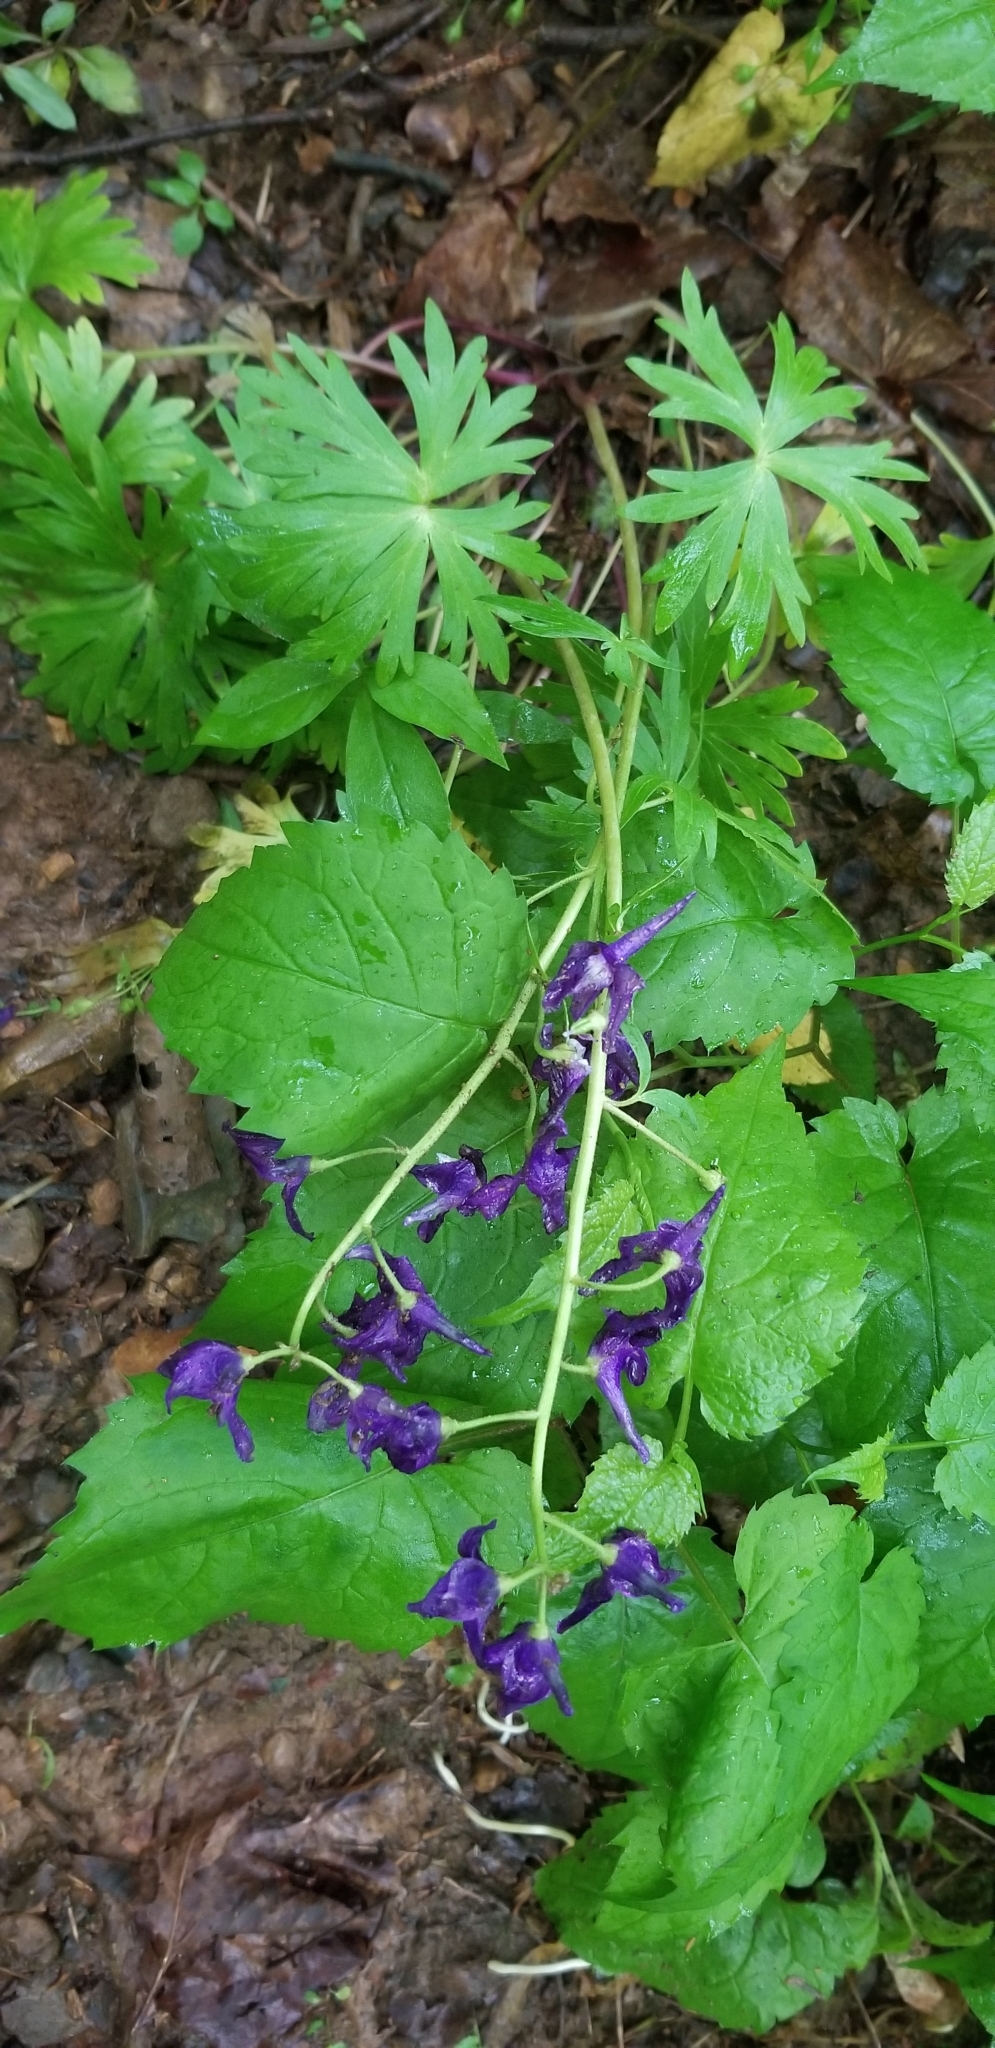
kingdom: Plantae
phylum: Tracheophyta
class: Magnoliopsida
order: Ranunculales
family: Ranunculaceae
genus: Delphinium
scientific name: Delphinium tricorne
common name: Dwarf larkspur
